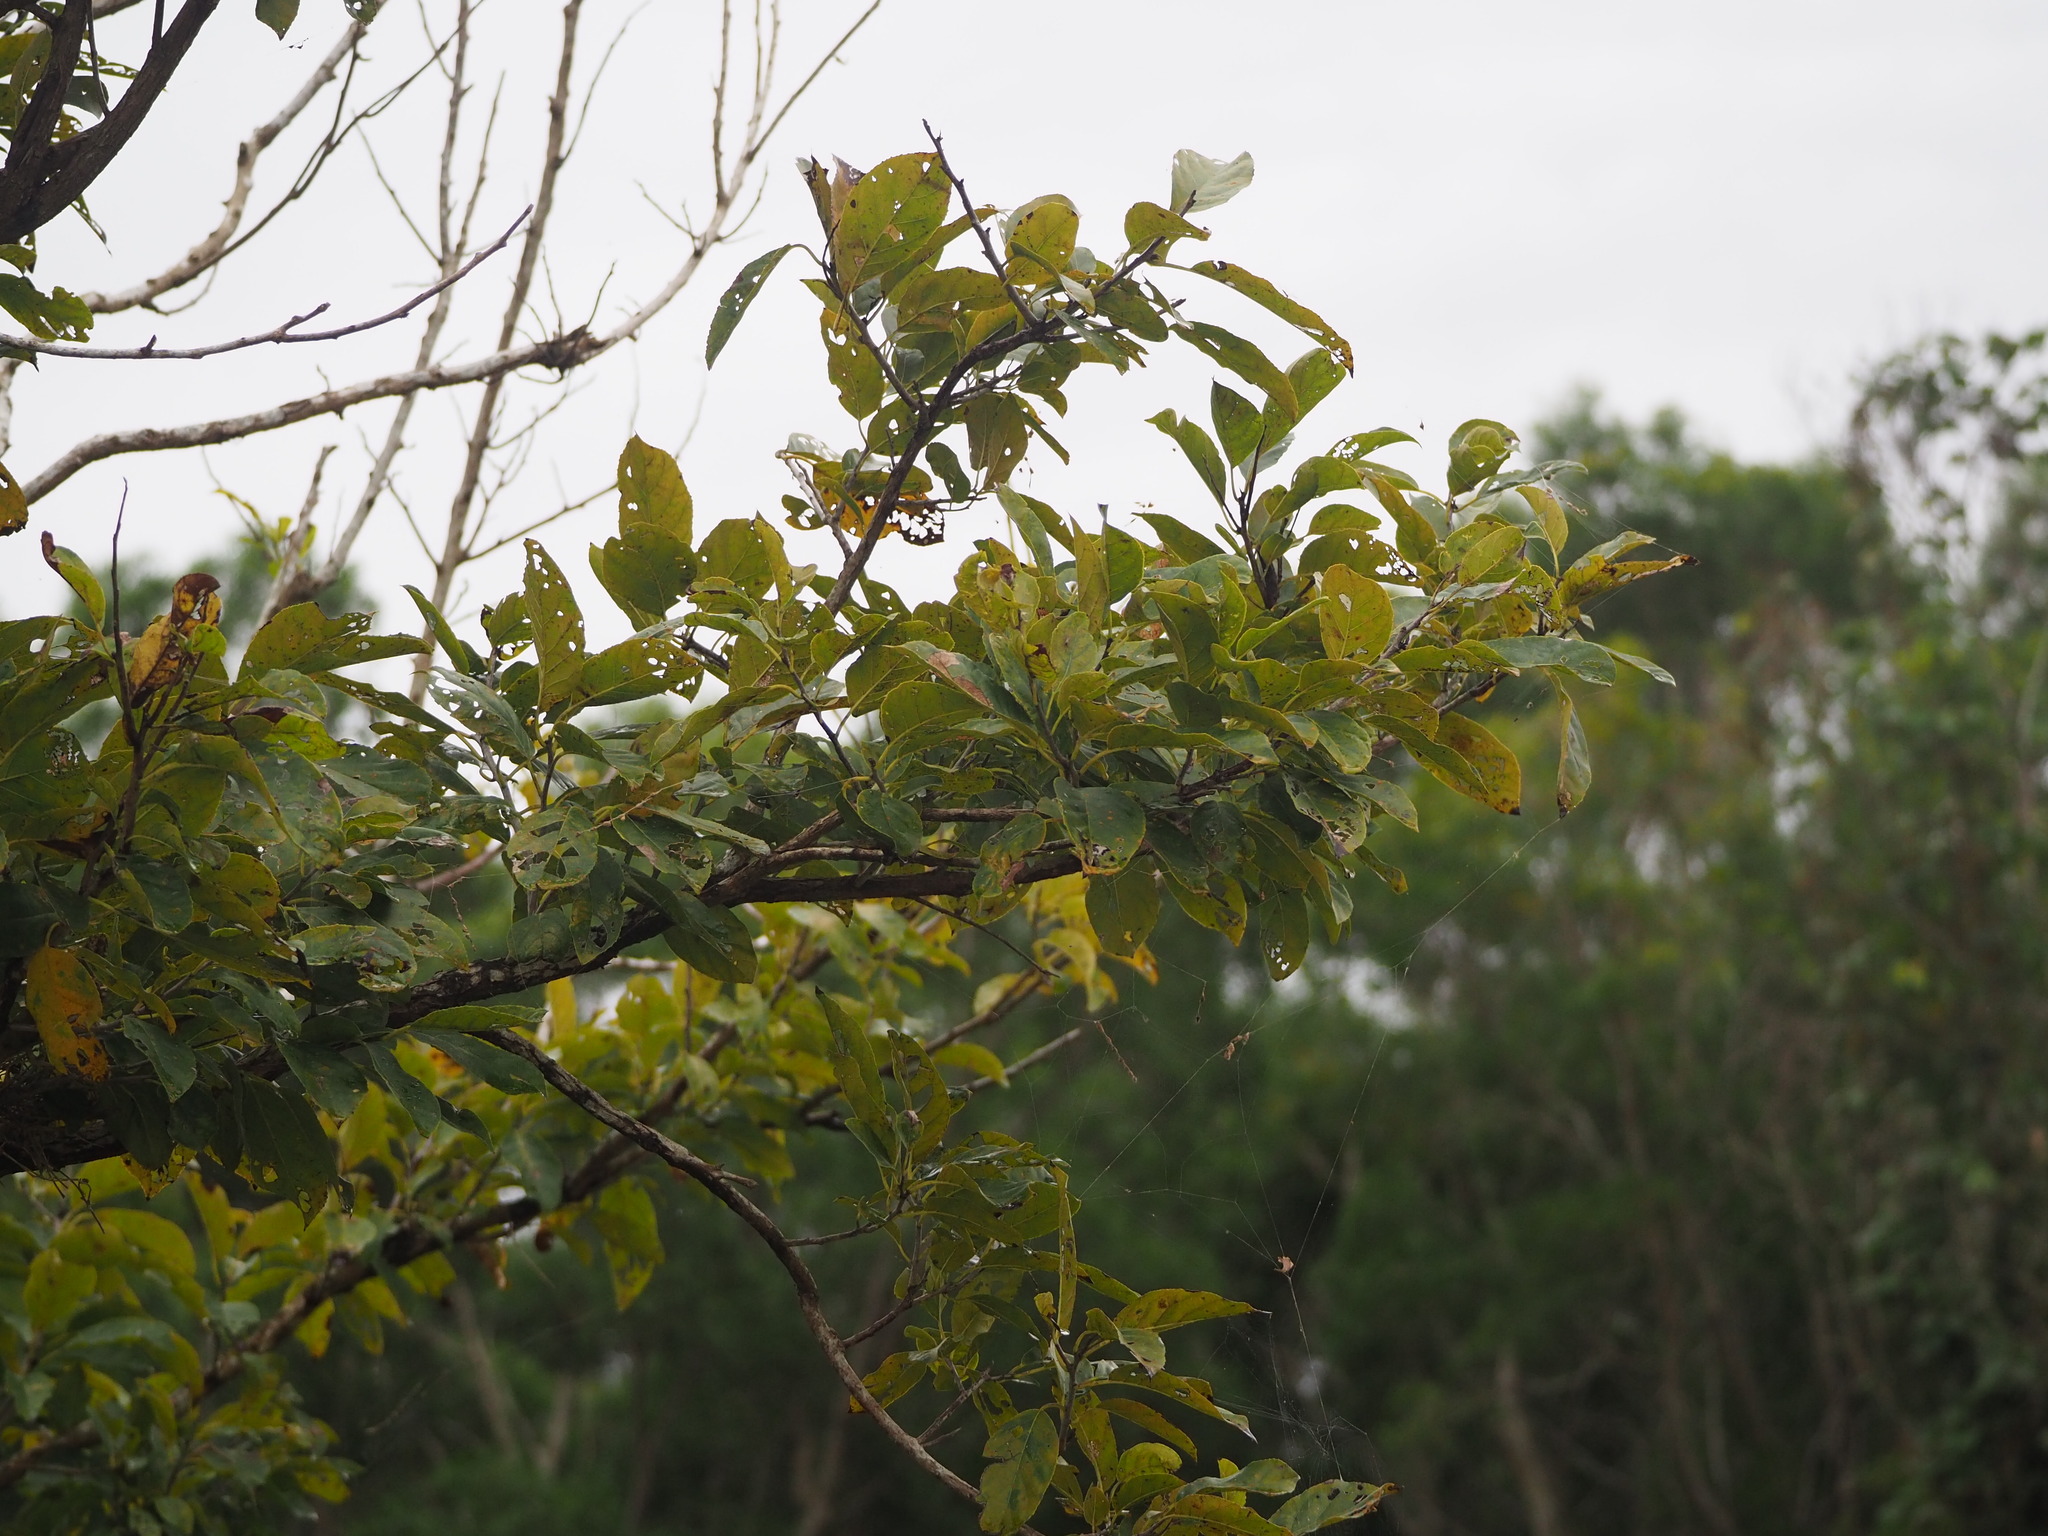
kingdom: Plantae
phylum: Tracheophyta
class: Magnoliopsida
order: Boraginales
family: Ehretiaceae
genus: Ehretia
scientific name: Ehretia acuminata
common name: Kodo wood
